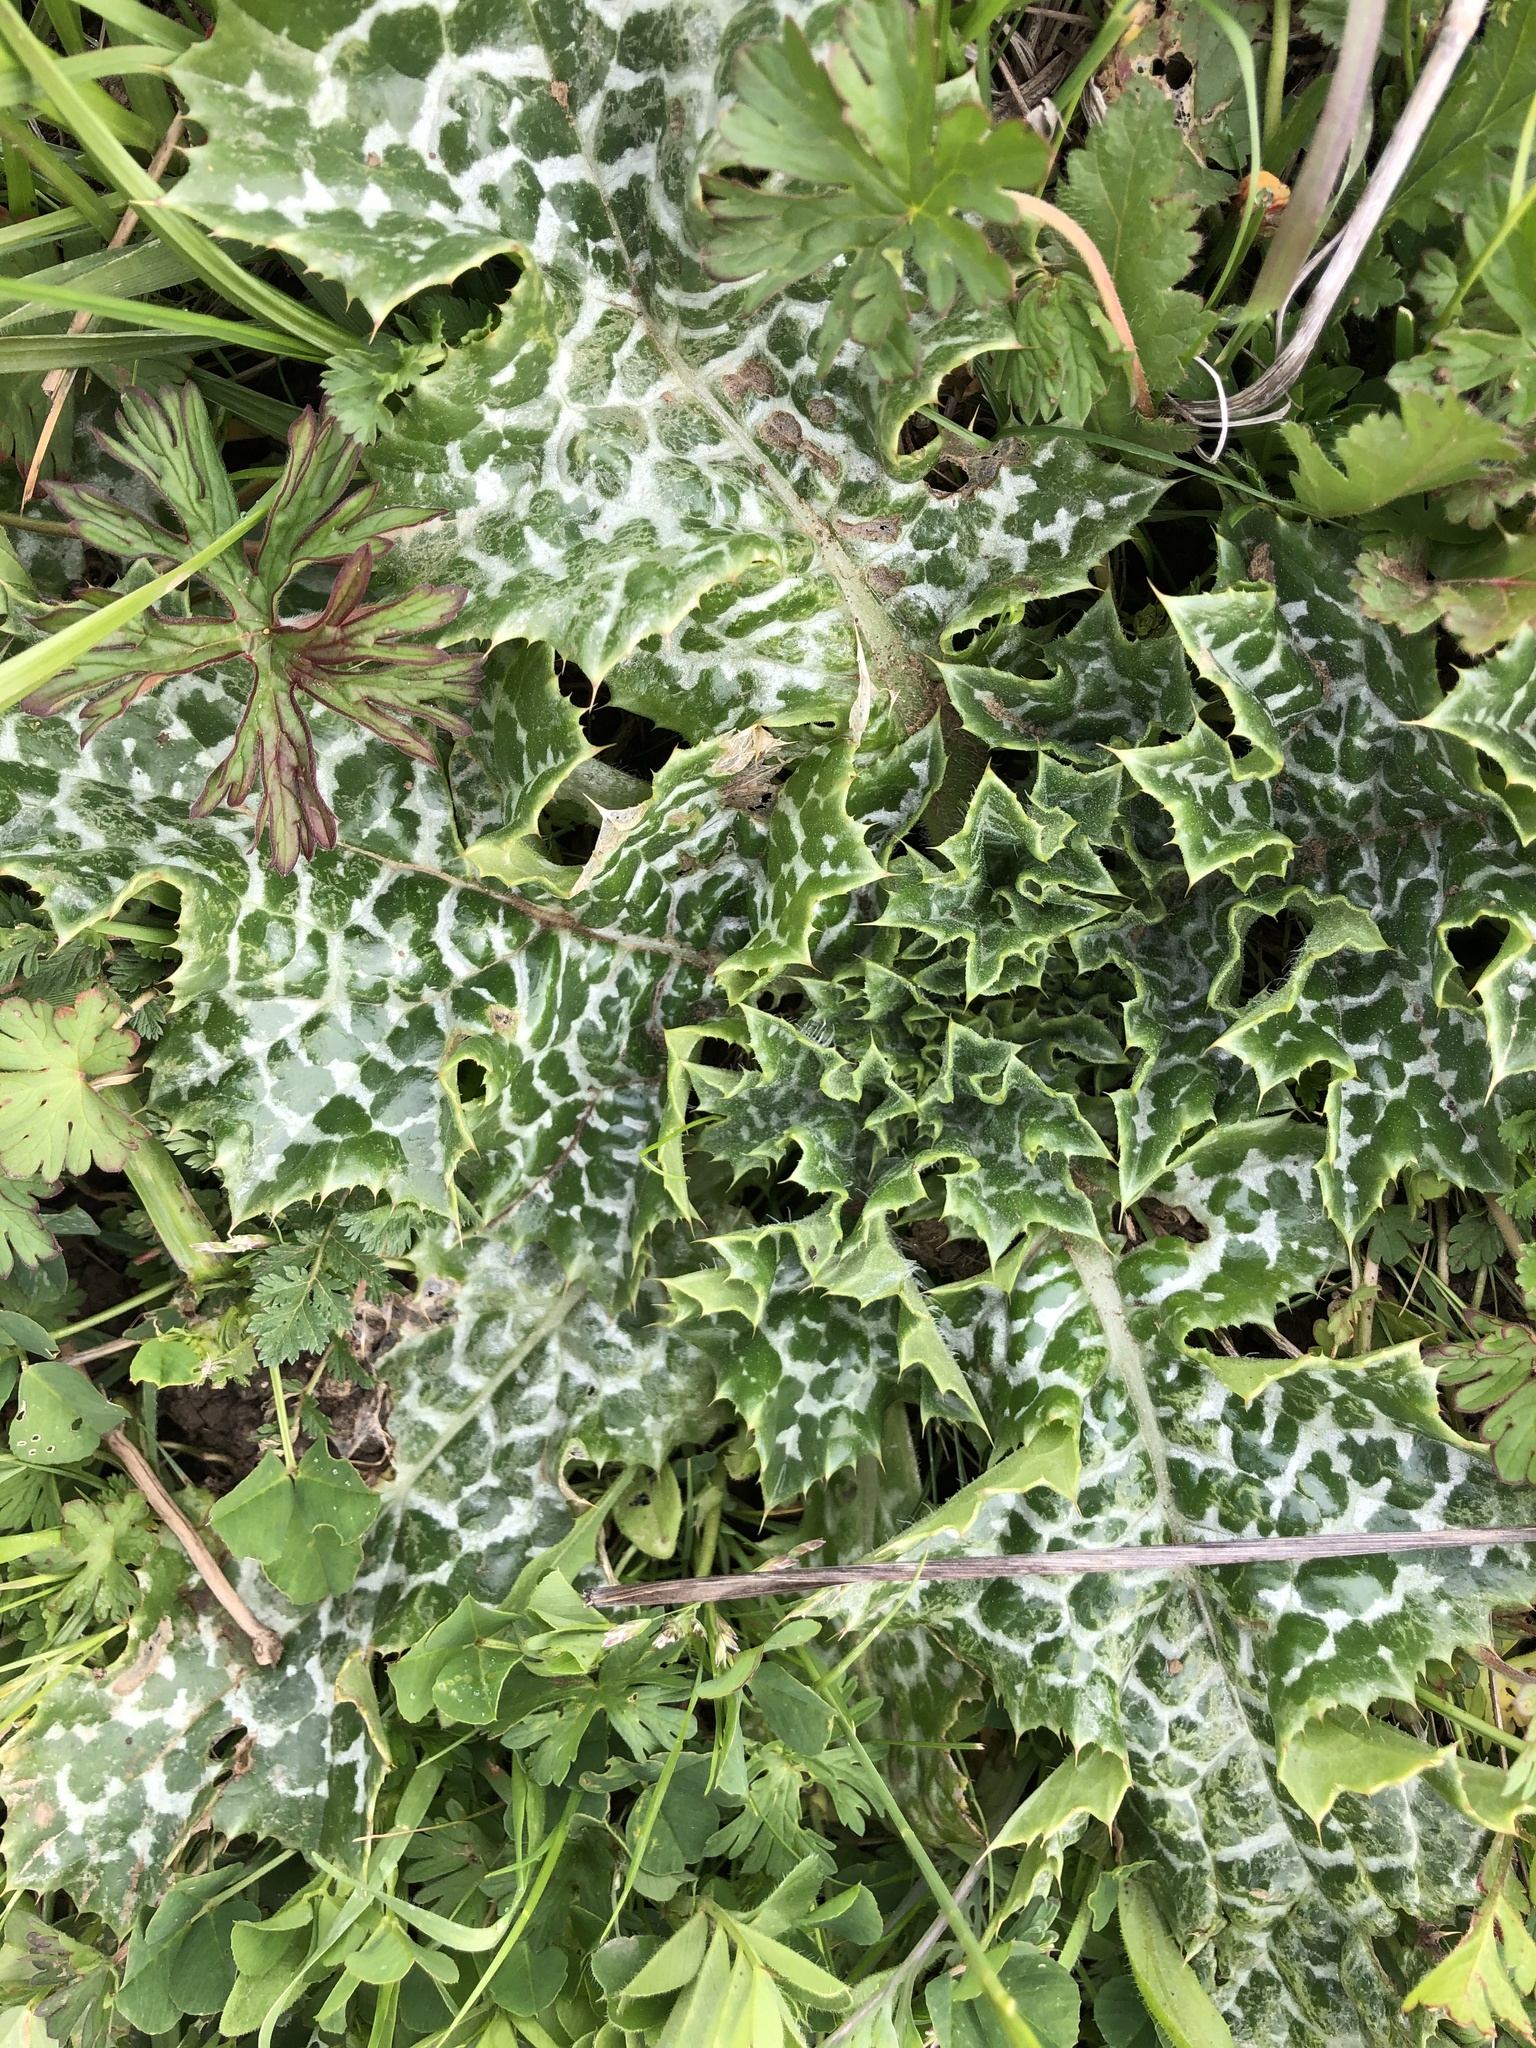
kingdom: Plantae
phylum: Tracheophyta
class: Magnoliopsida
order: Asterales
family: Asteraceae
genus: Silybum
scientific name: Silybum marianum
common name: Milk thistle
